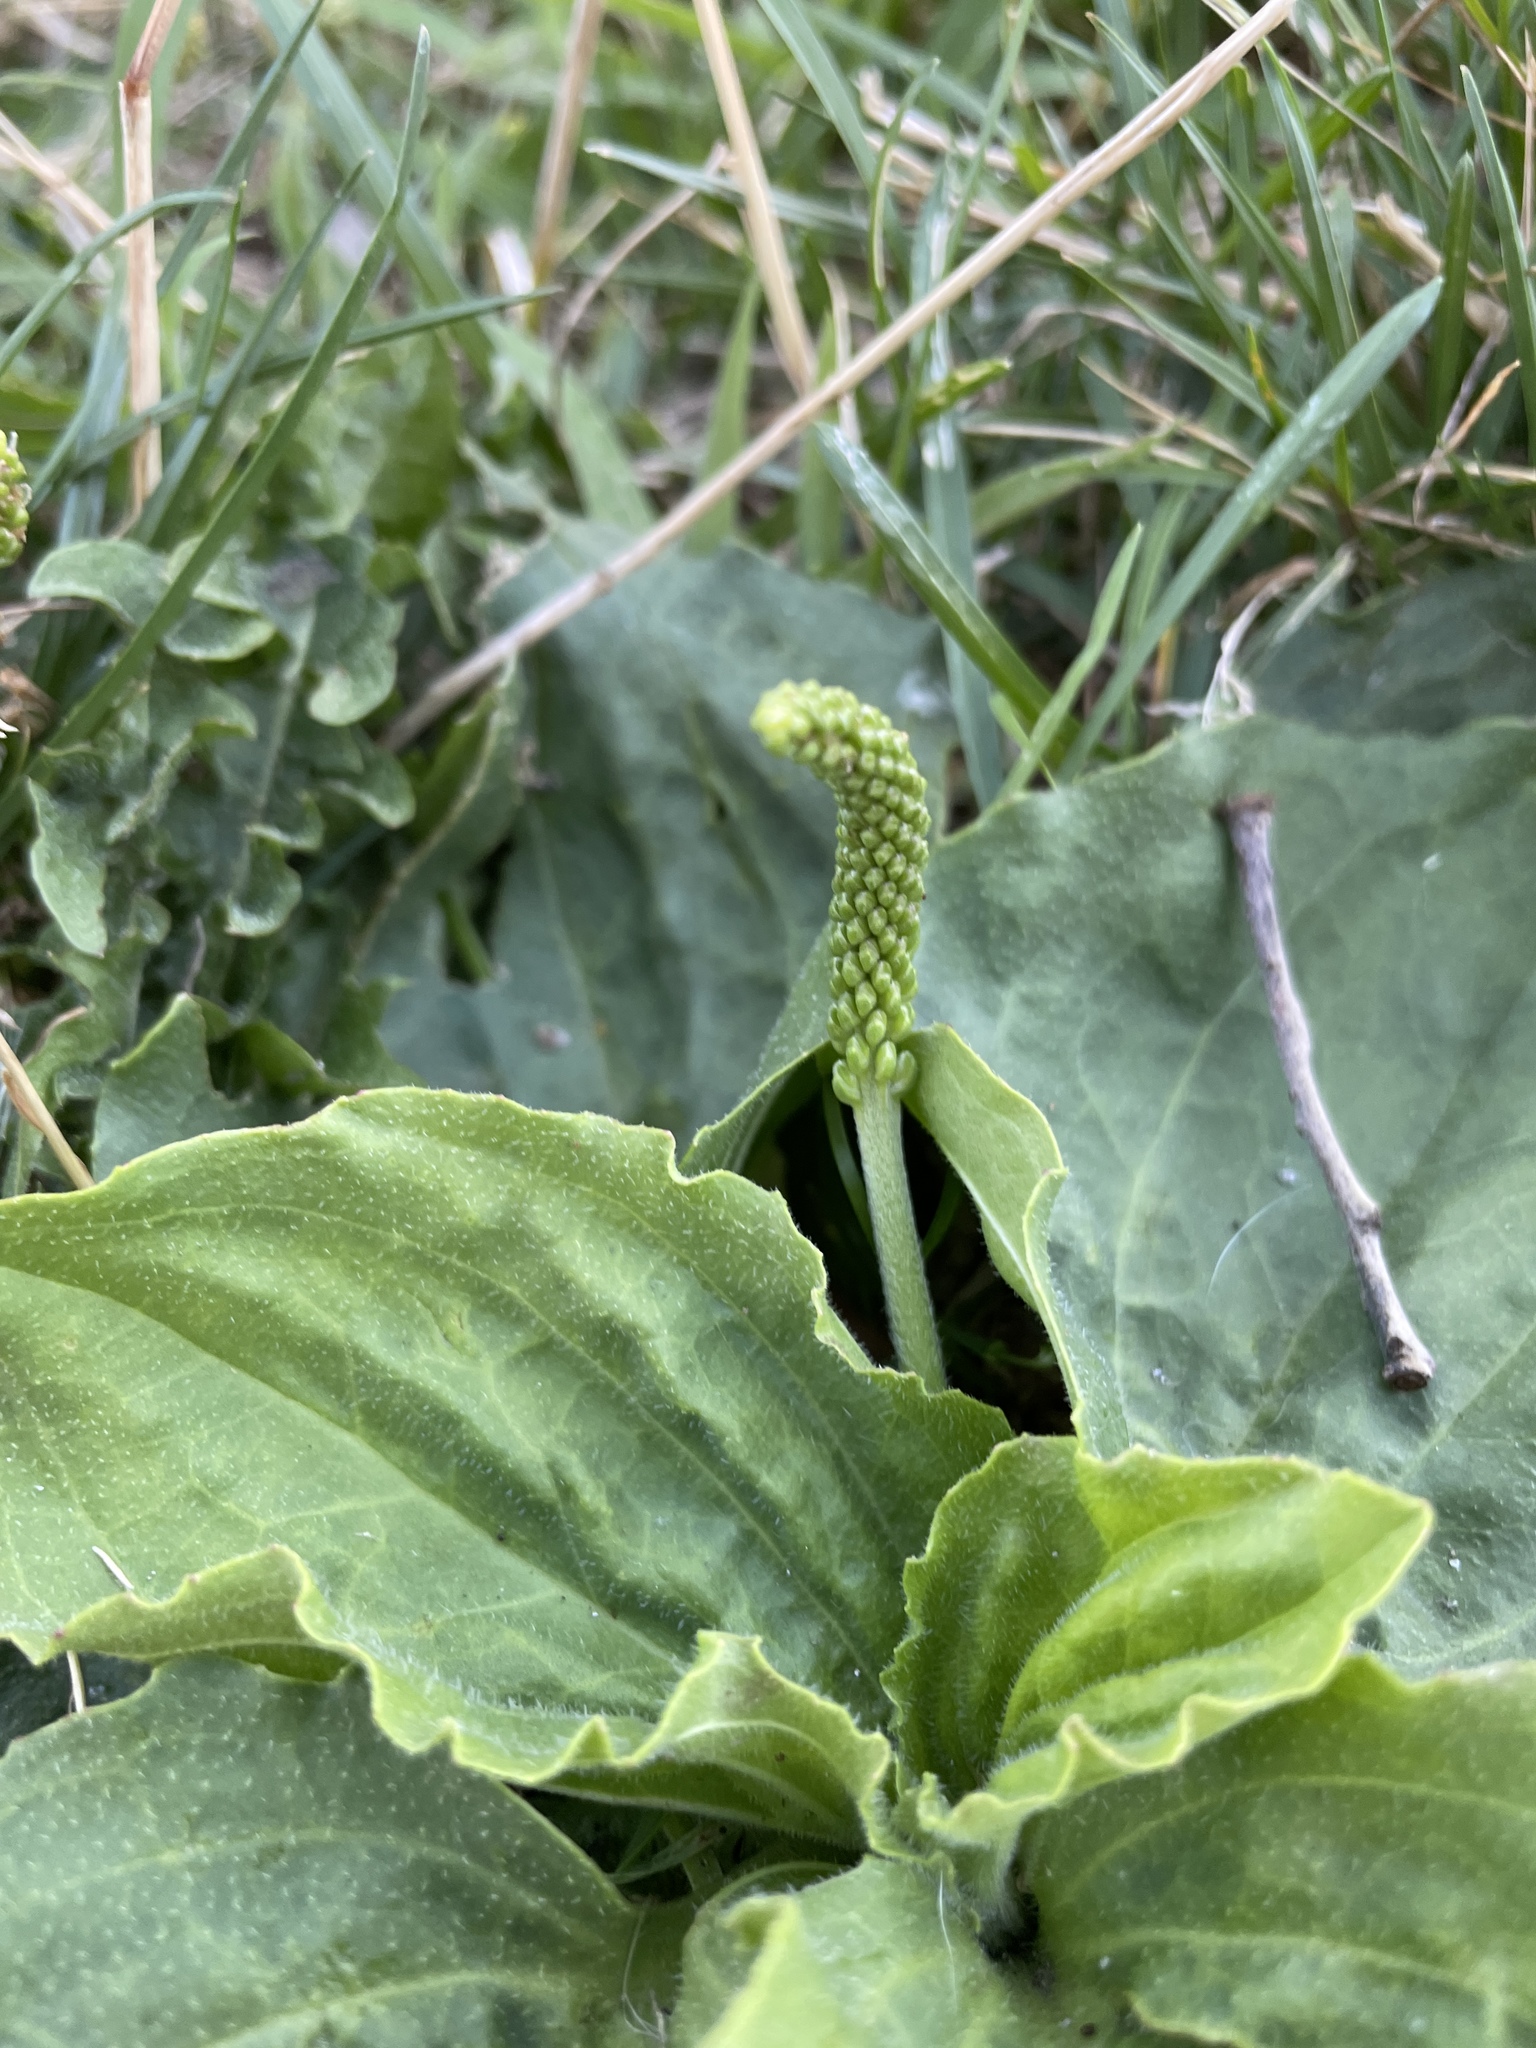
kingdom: Plantae
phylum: Tracheophyta
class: Magnoliopsida
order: Lamiales
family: Plantaginaceae
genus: Plantago
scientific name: Plantago major
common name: Common plantain
